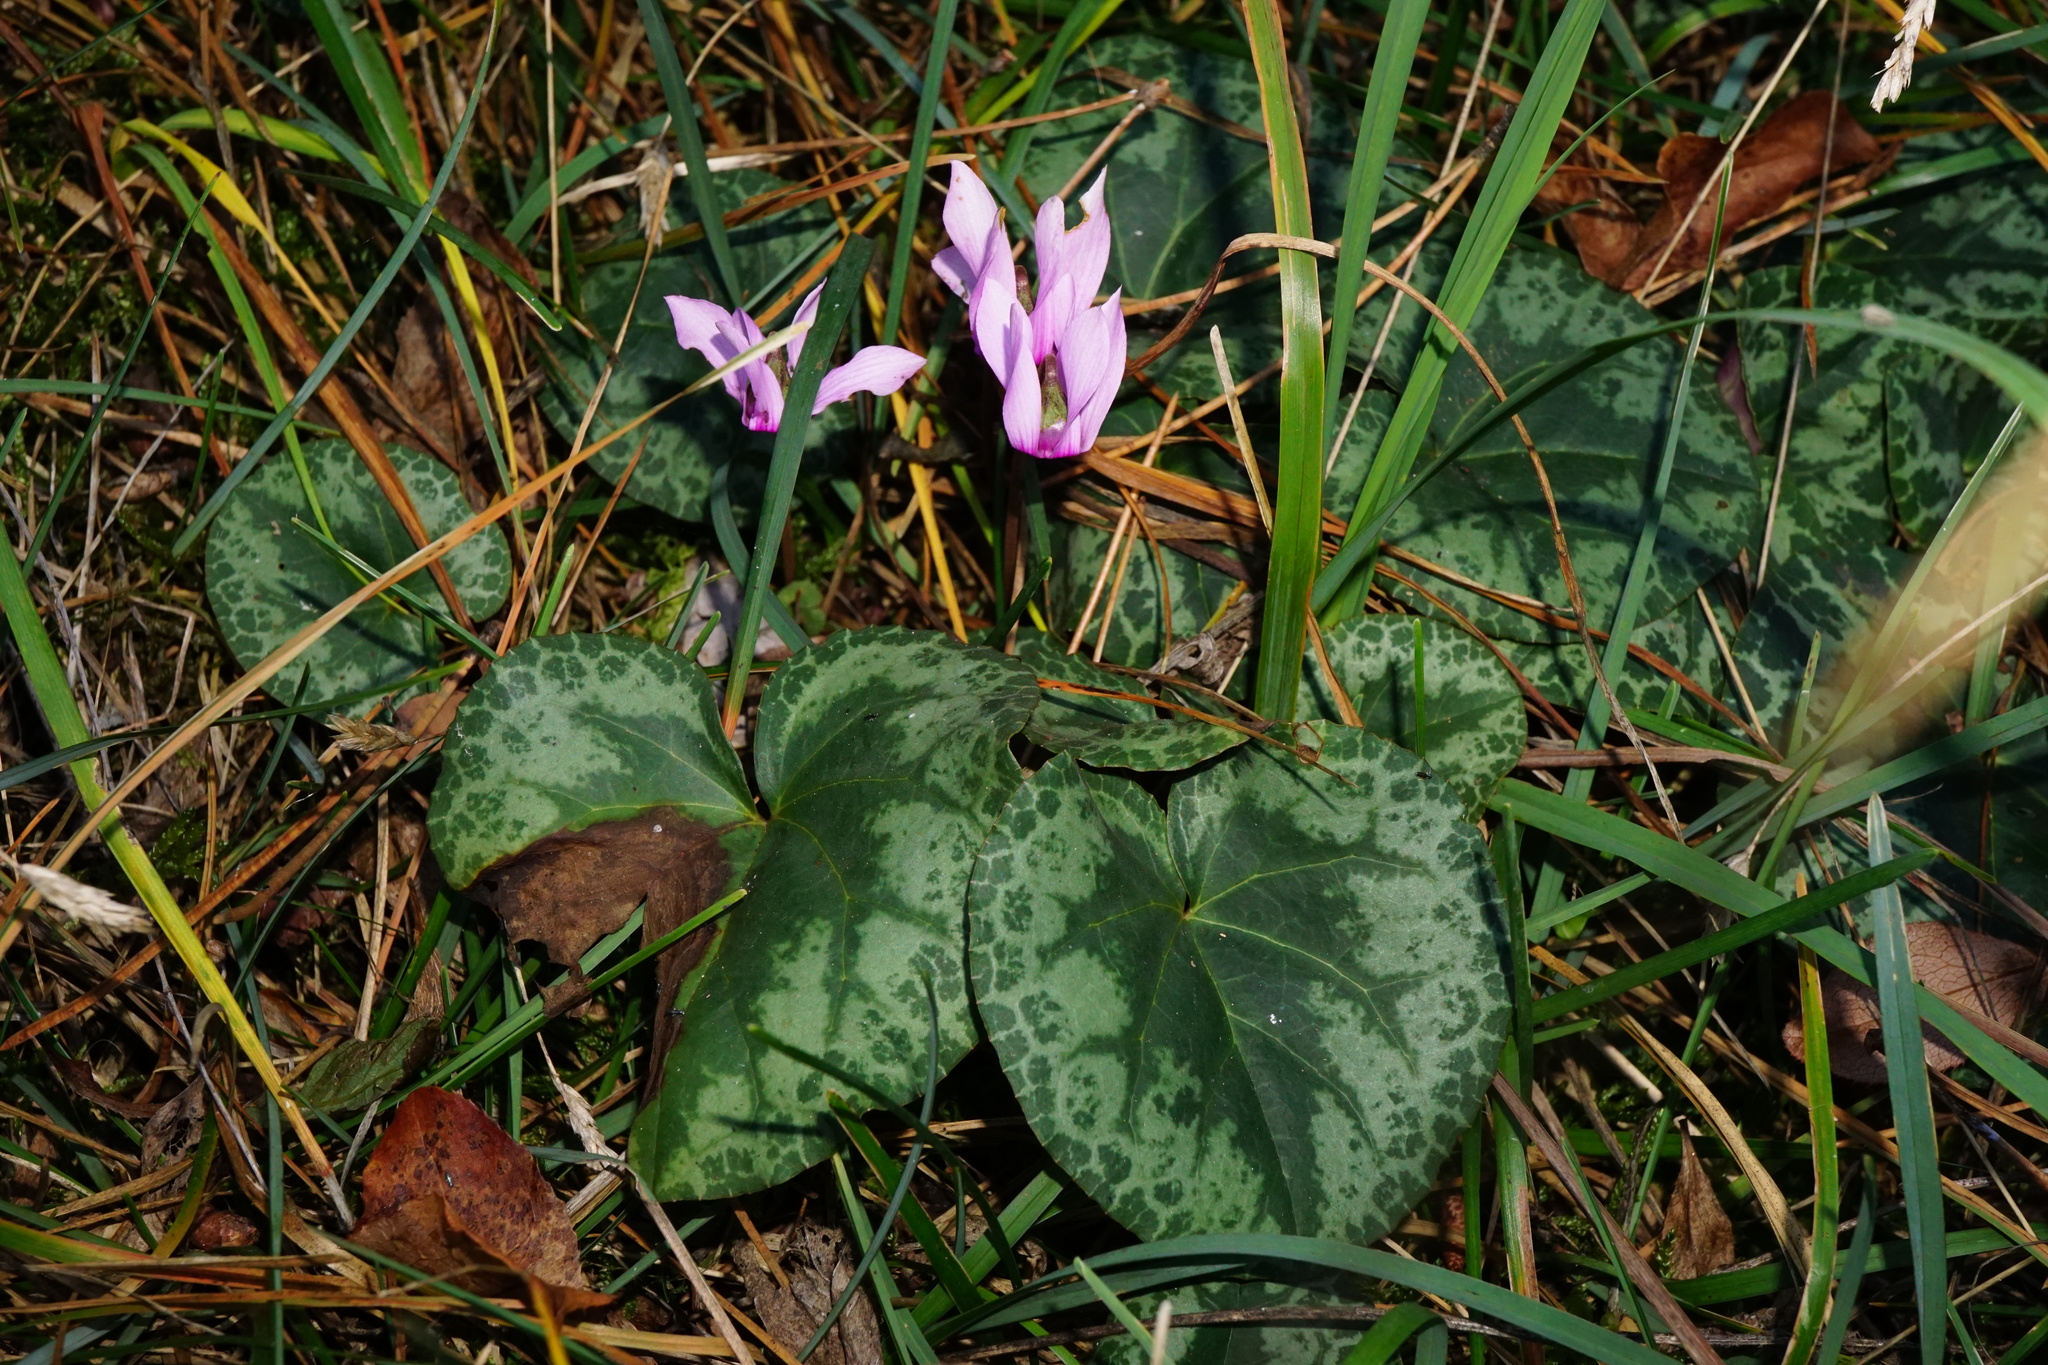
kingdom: Plantae
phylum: Tracheophyta
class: Magnoliopsida
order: Ericales
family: Primulaceae
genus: Cyclamen
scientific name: Cyclamen purpurascens
